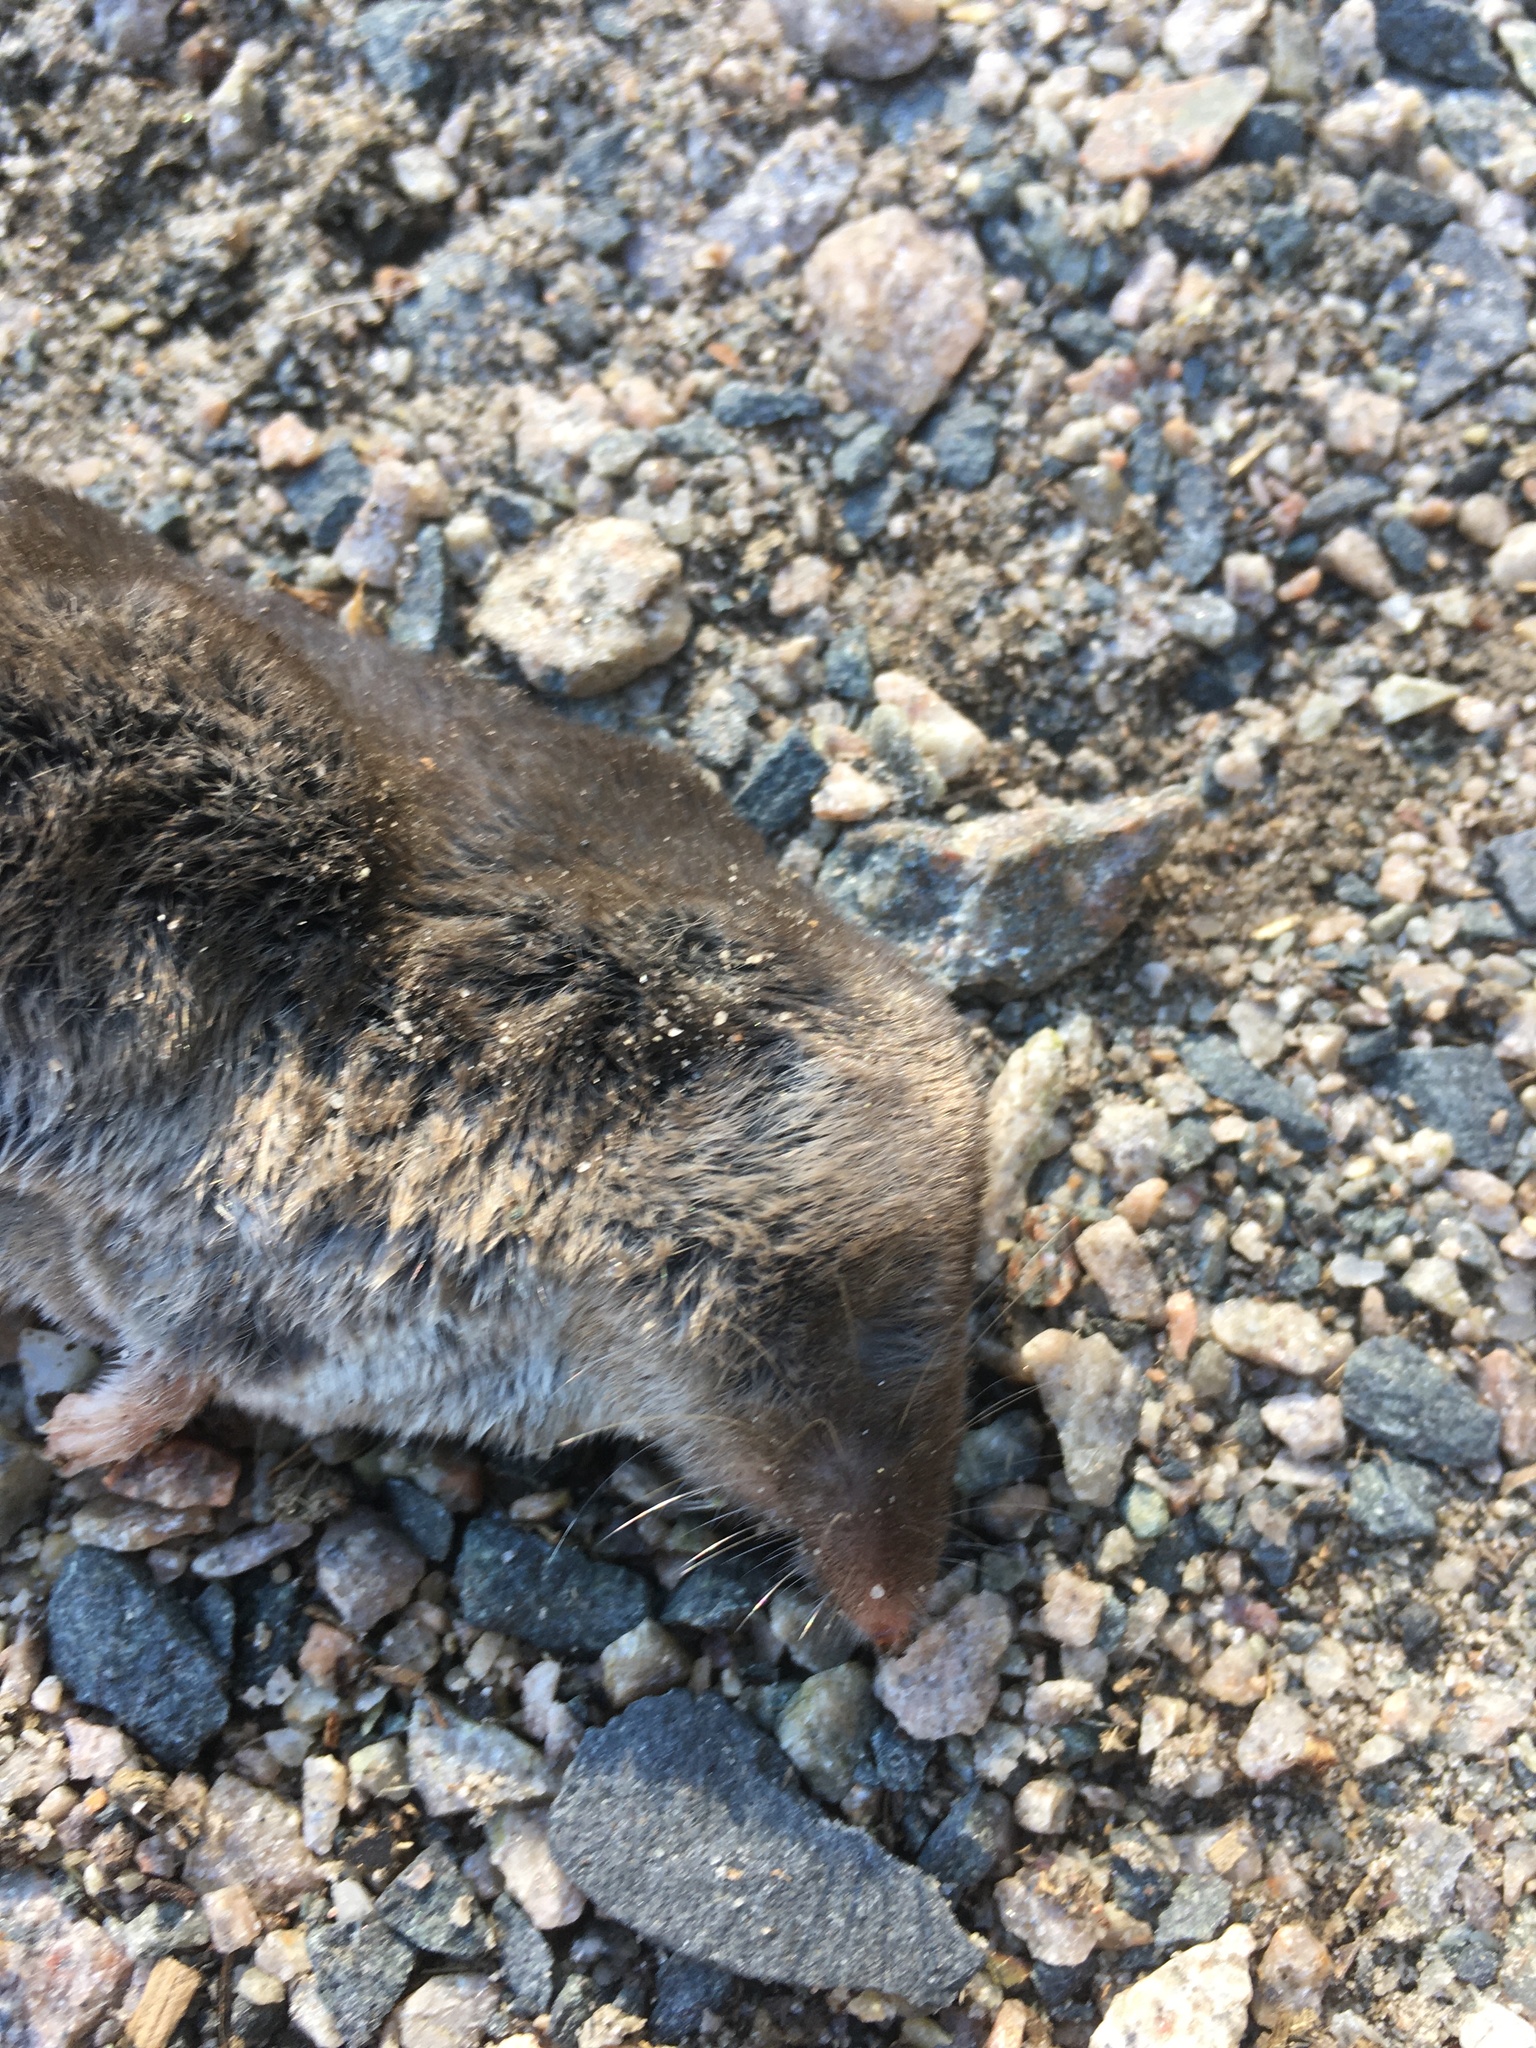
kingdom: Animalia
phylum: Chordata
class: Mammalia
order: Soricomorpha
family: Soricidae
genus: Blarina
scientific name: Blarina brevicauda
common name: Northern short-tailed shrew
